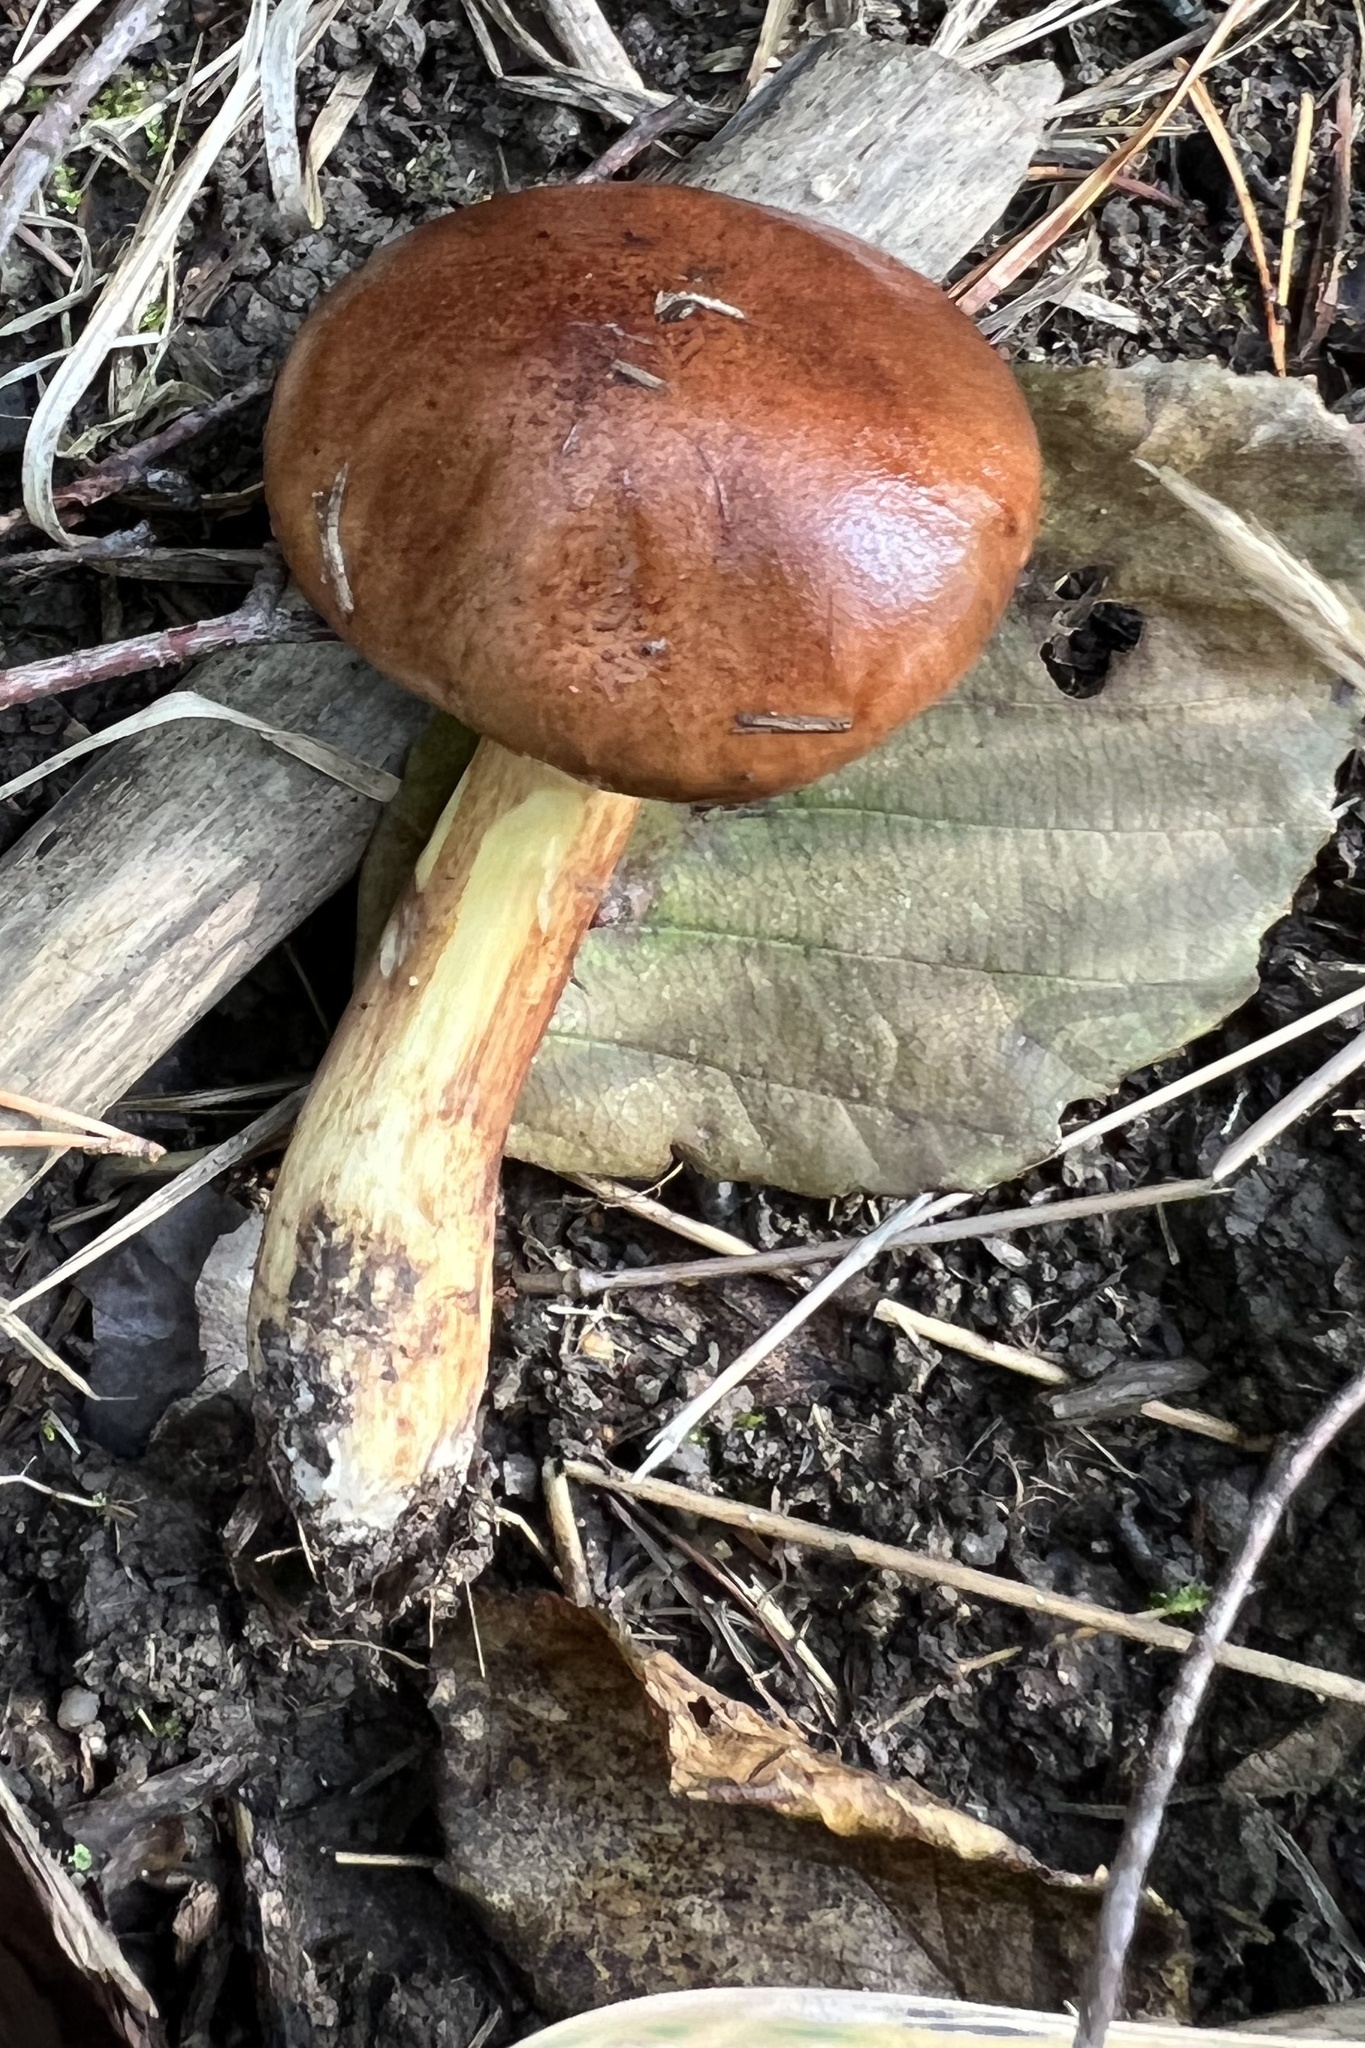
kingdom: Fungi
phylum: Basidiomycota
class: Agaricomycetes
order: Agaricales
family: Tricholomataceae
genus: Tricholoma
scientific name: Tricholoma fulvum
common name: Birch knight
